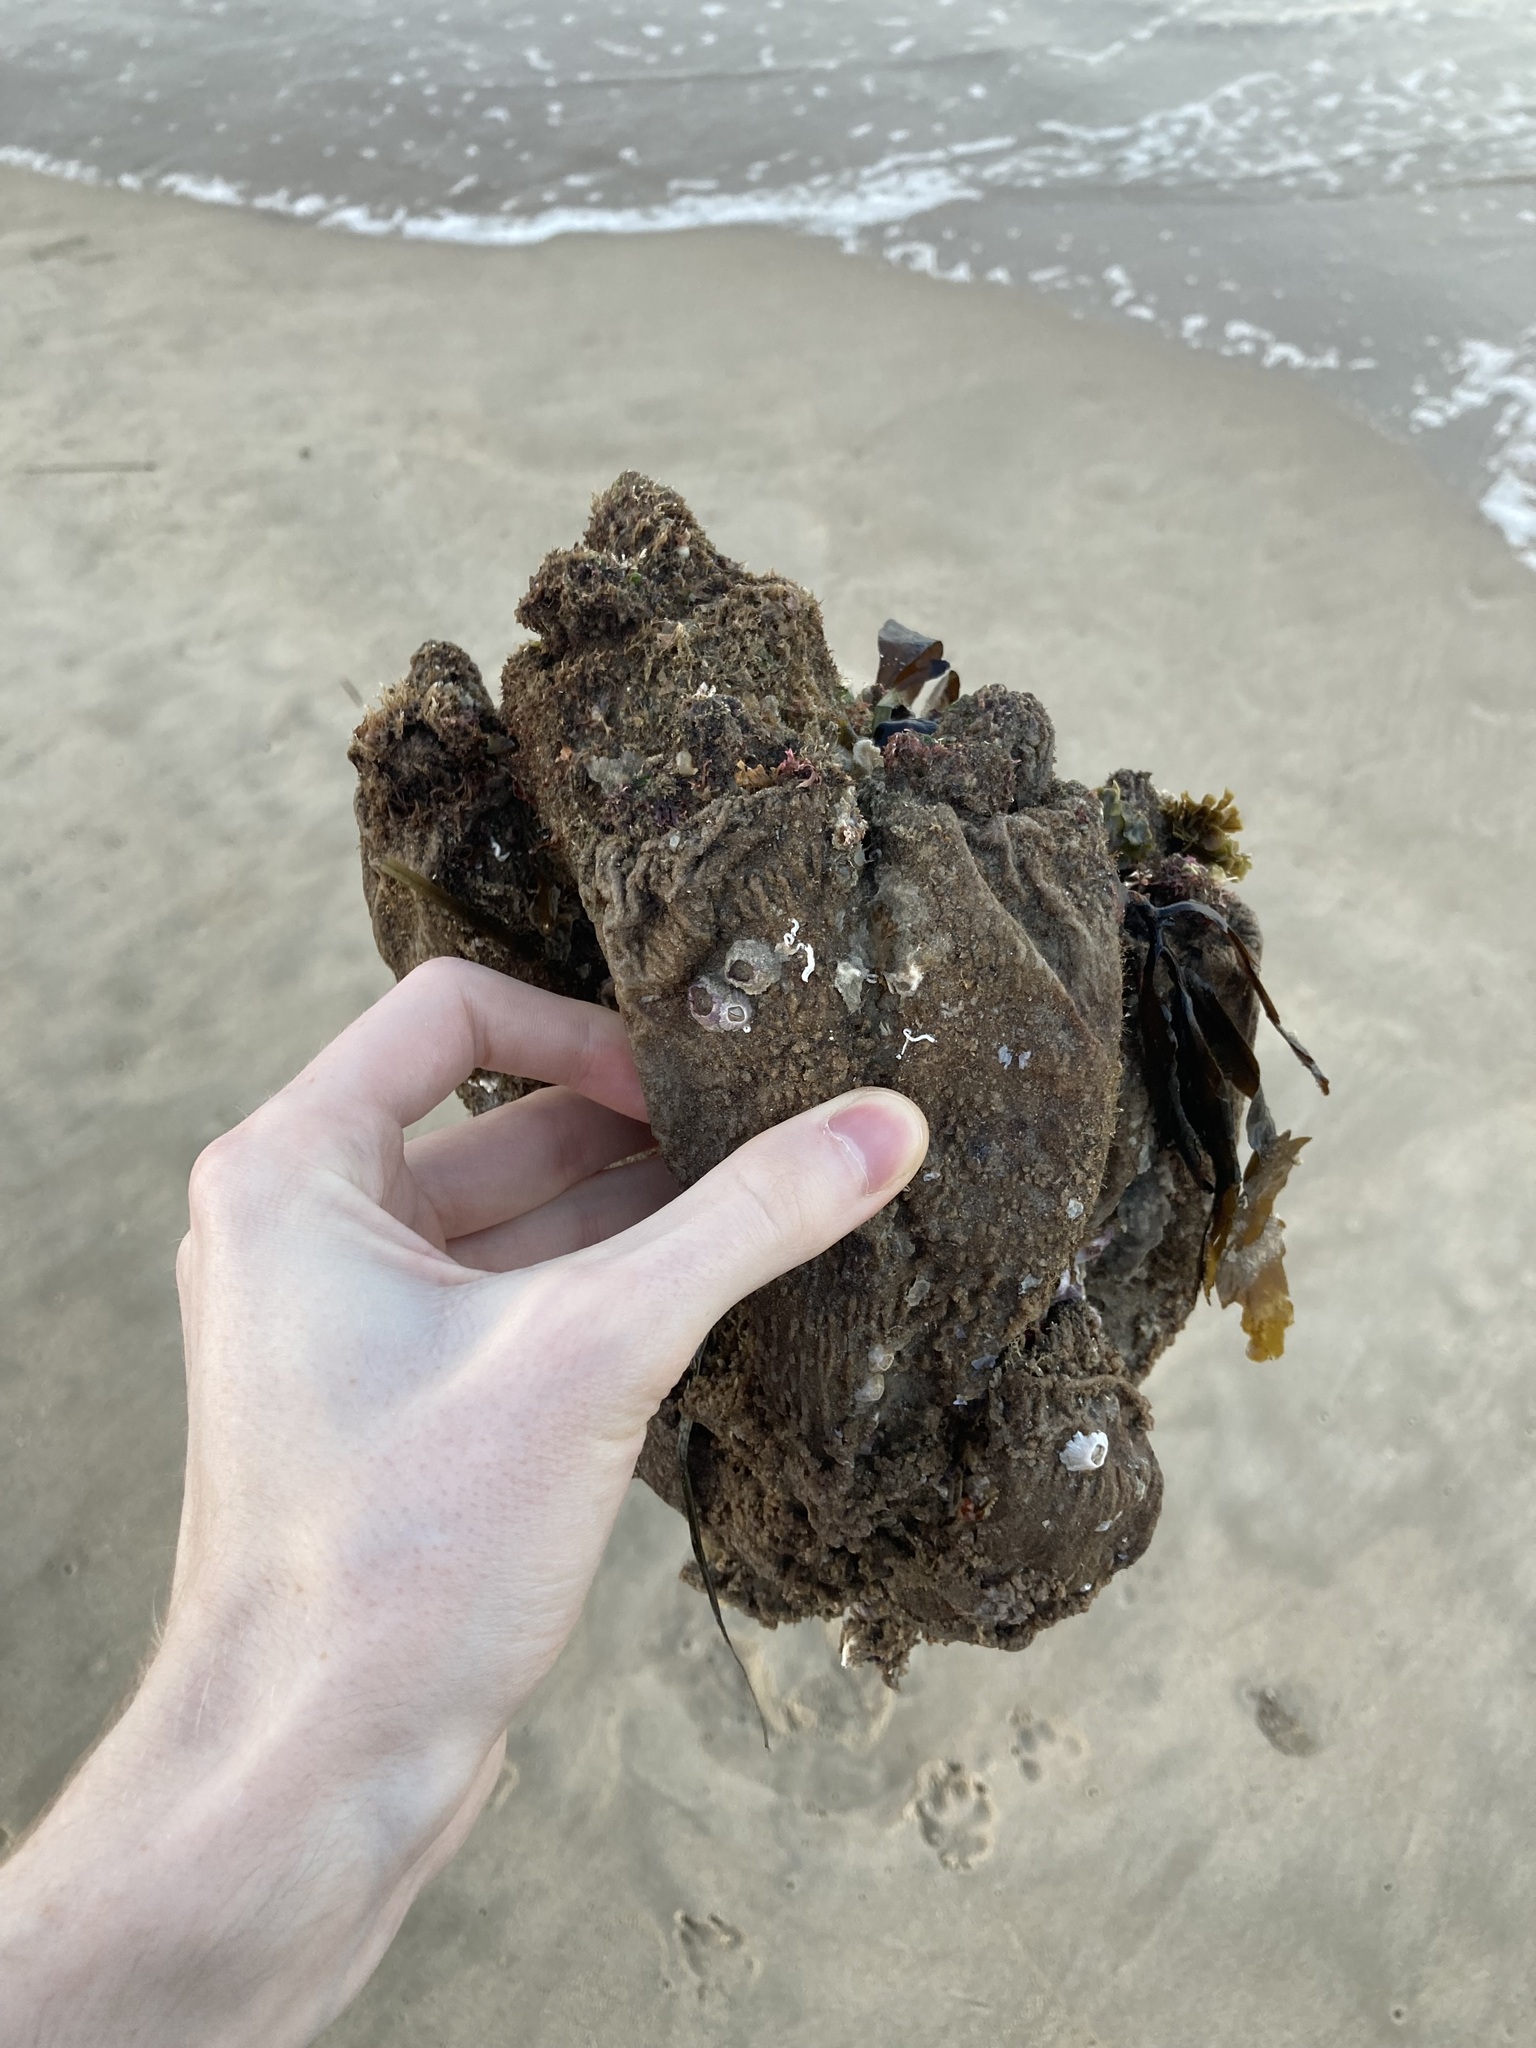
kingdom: Animalia
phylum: Chordata
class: Ascidiacea
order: Stolidobranchia
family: Pyuridae
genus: Pyura
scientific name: Pyura praeputialis
